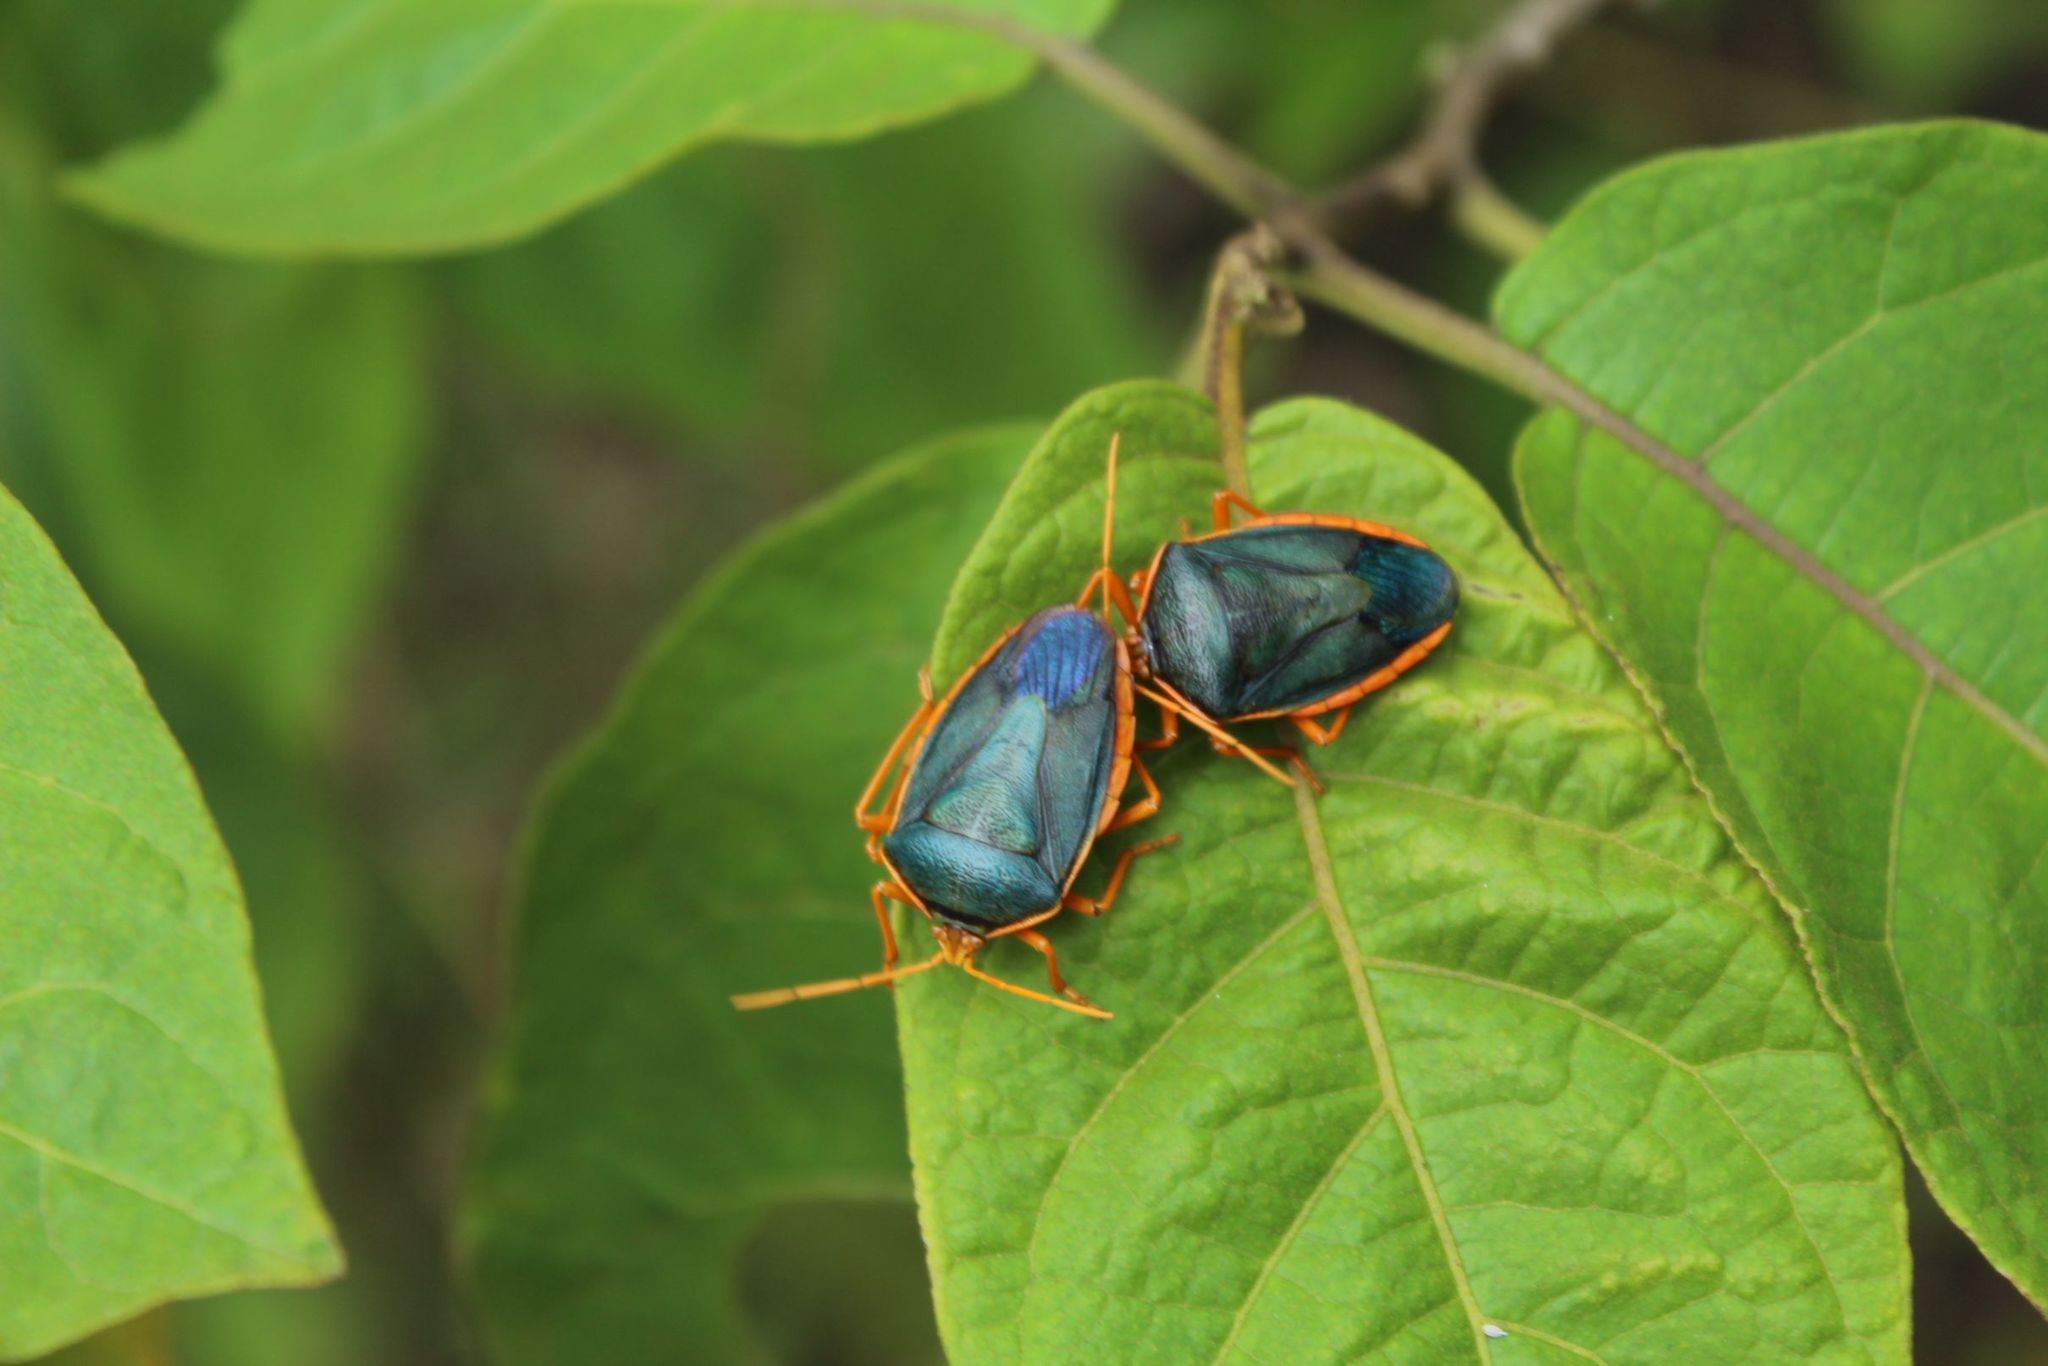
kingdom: Animalia
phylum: Arthropoda
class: Insecta
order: Hemiptera
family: Pentatomidae
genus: Edessa
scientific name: Edessa rufomarginata
